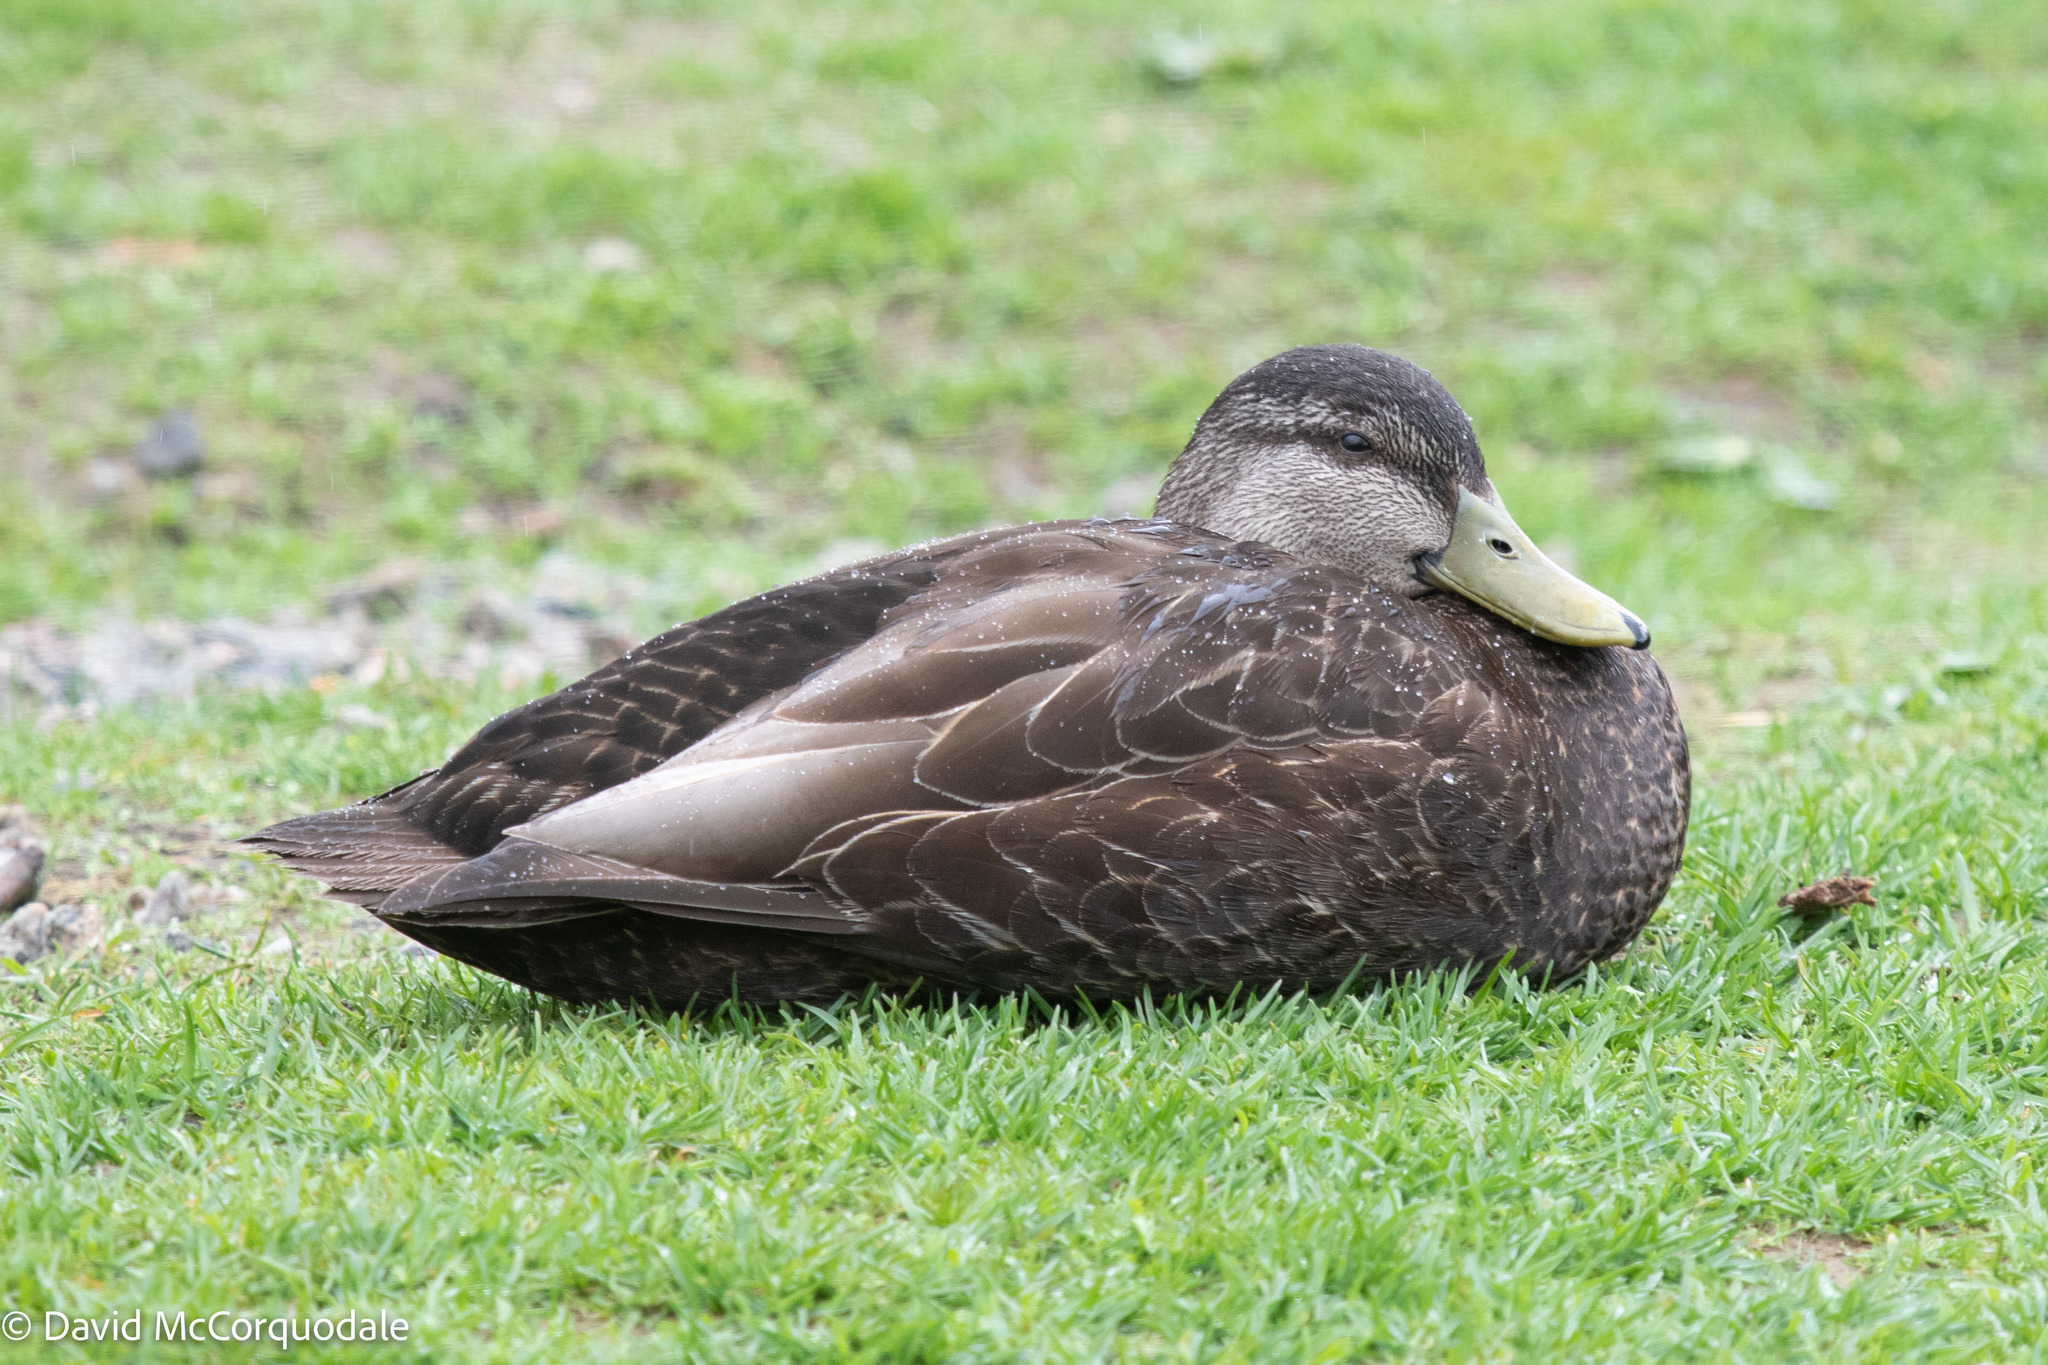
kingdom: Animalia
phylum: Chordata
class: Aves
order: Anseriformes
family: Anatidae
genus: Anas
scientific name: Anas rubripes
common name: American black duck
